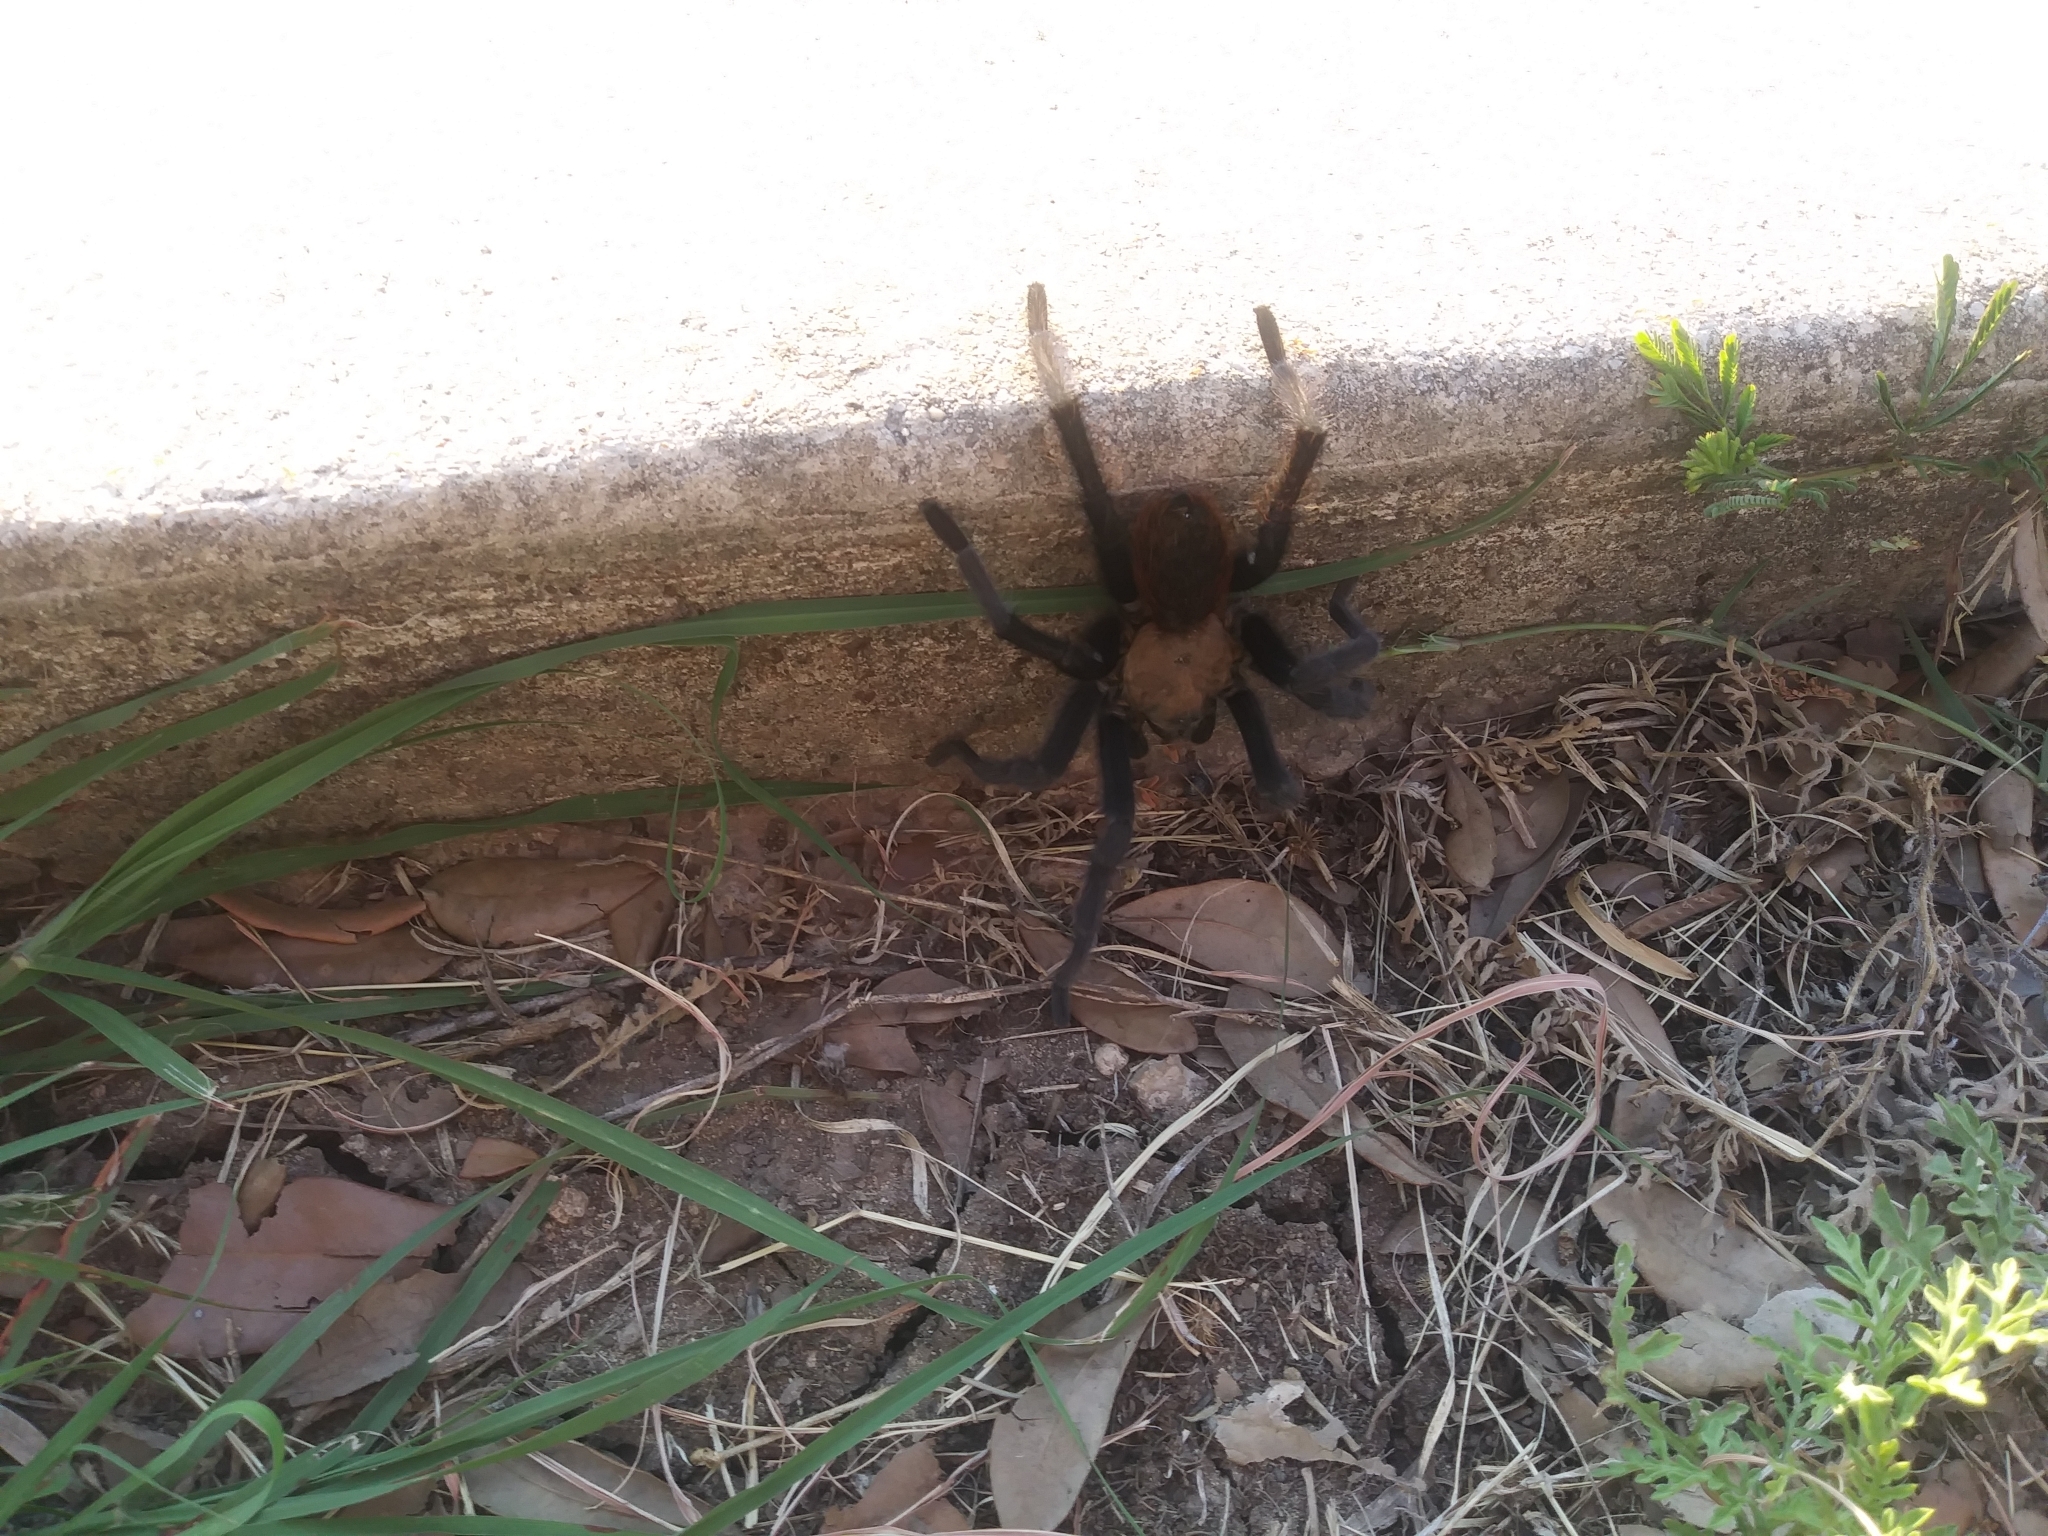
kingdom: Animalia
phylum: Arthropoda
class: Arachnida
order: Araneae
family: Theraphosidae
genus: Aphonopelma
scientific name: Aphonopelma anax
